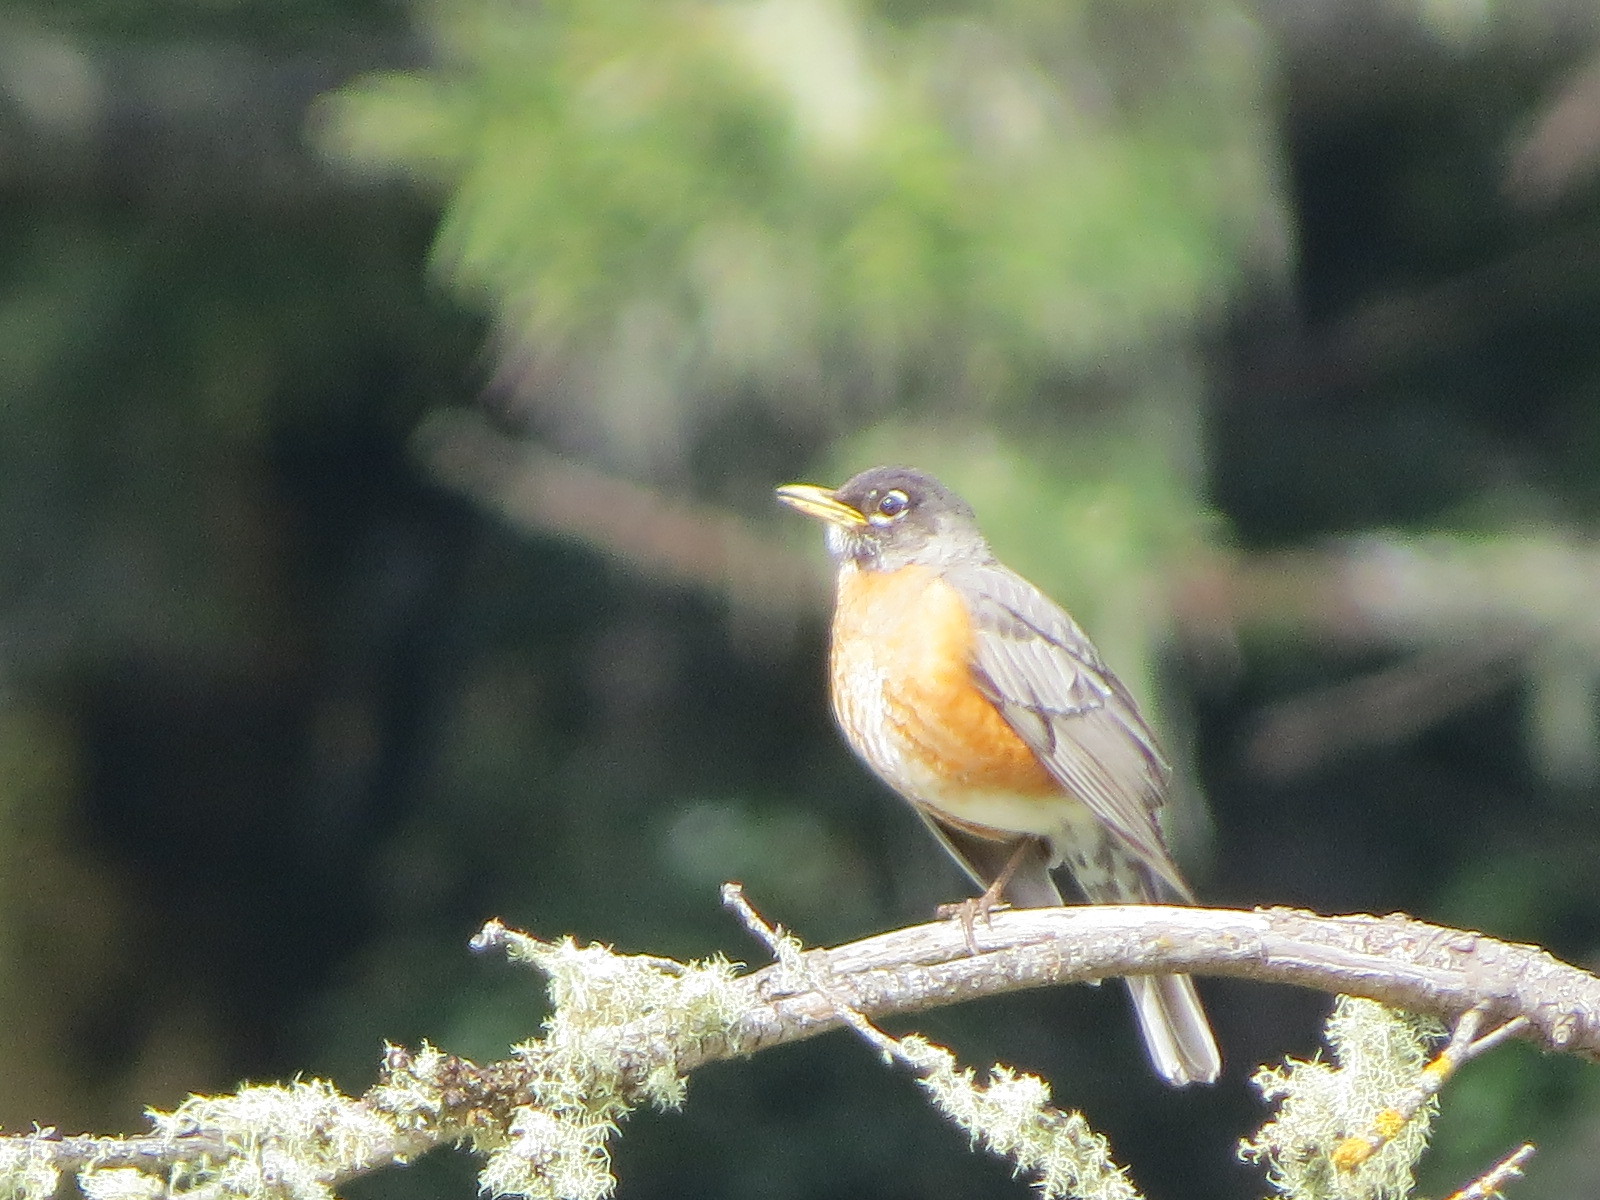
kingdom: Animalia
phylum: Chordata
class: Aves
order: Passeriformes
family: Turdidae
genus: Turdus
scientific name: Turdus migratorius
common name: American robin
